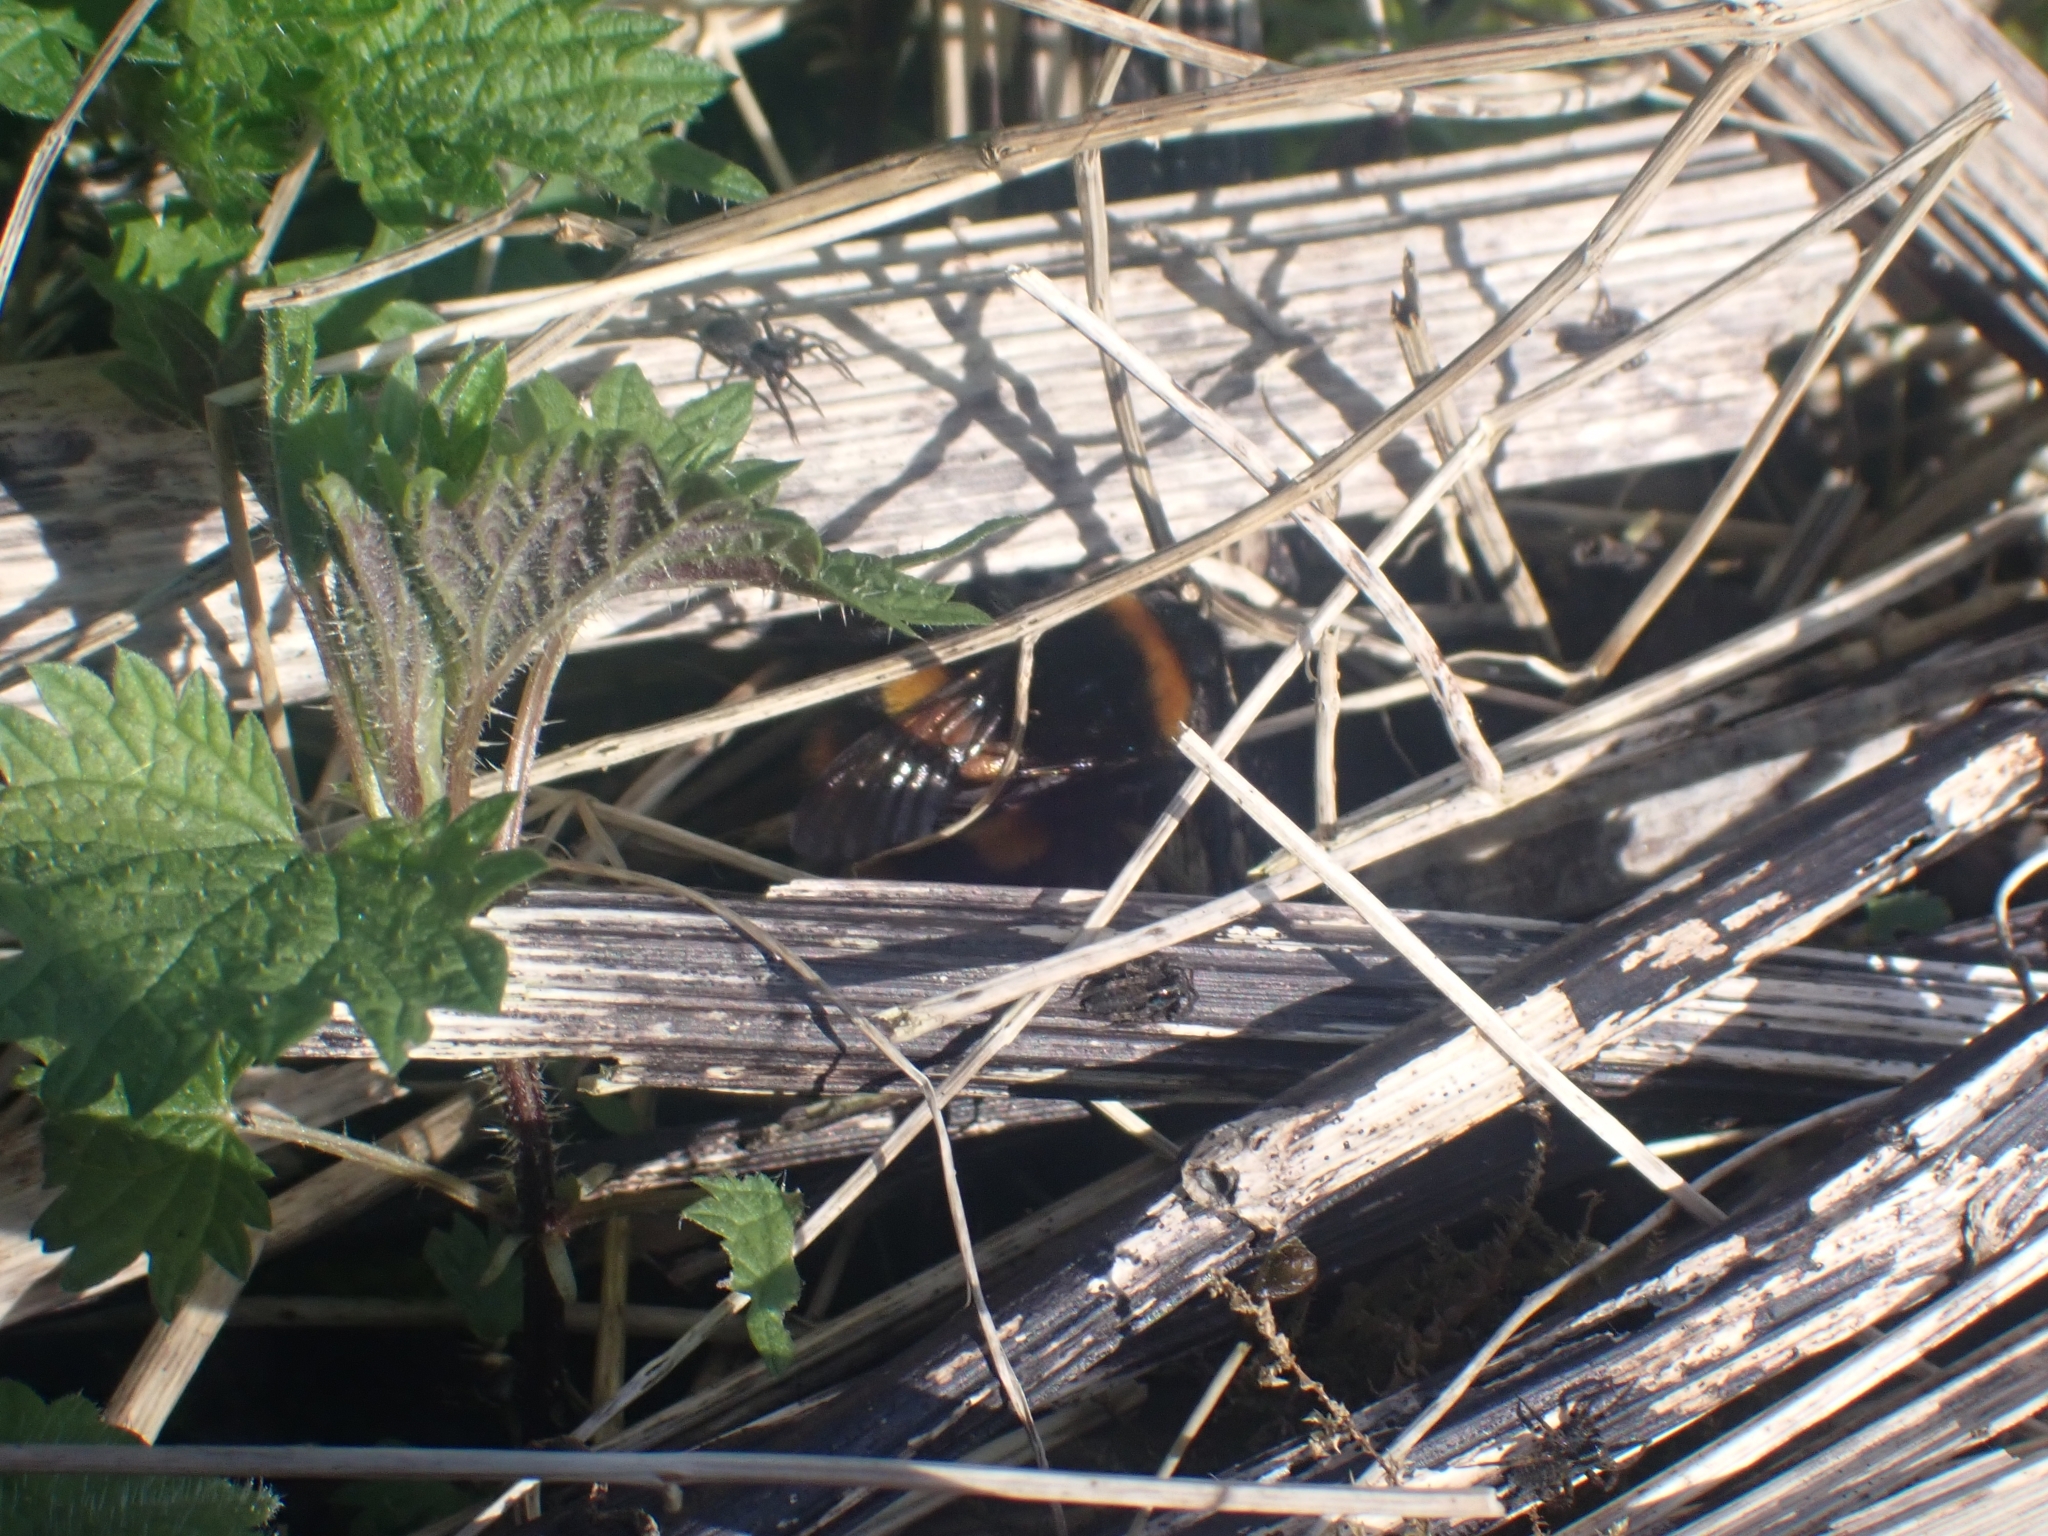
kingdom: Animalia
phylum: Arthropoda
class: Insecta
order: Hymenoptera
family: Apidae
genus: Bombus
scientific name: Bombus terrestris
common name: Buff-tailed bumblebee
